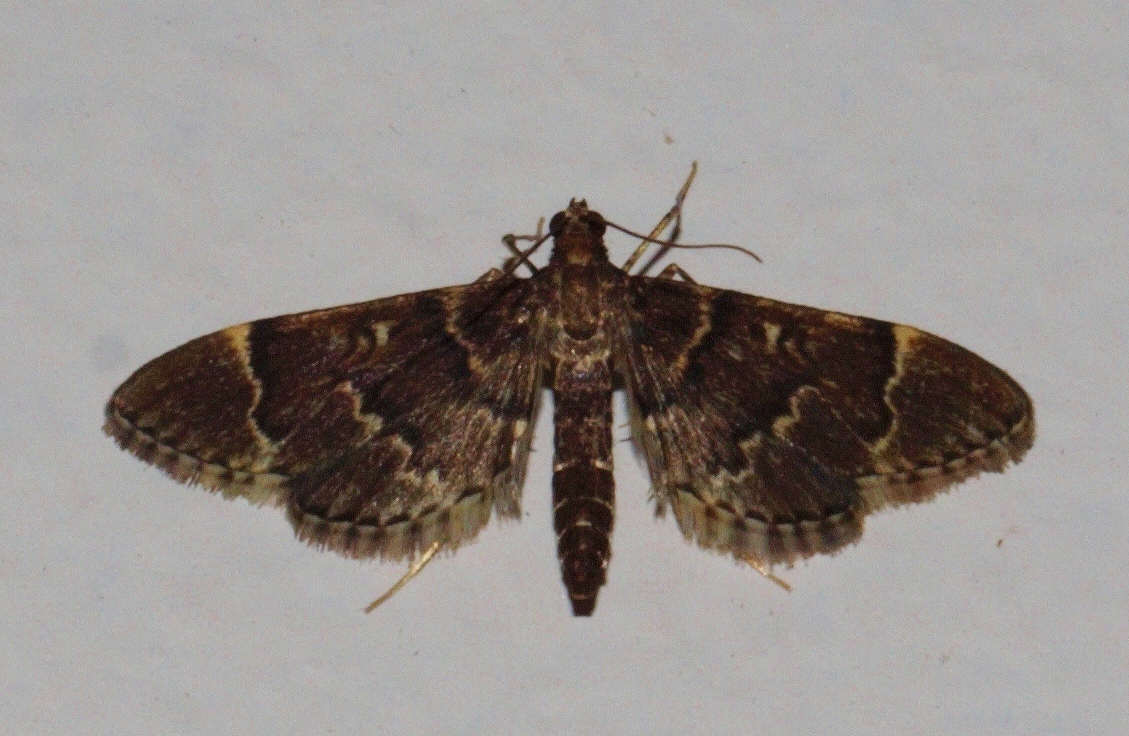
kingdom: Animalia
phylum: Arthropoda
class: Insecta
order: Lepidoptera
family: Crambidae
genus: Duponchelia
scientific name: Duponchelia lanceolalis
